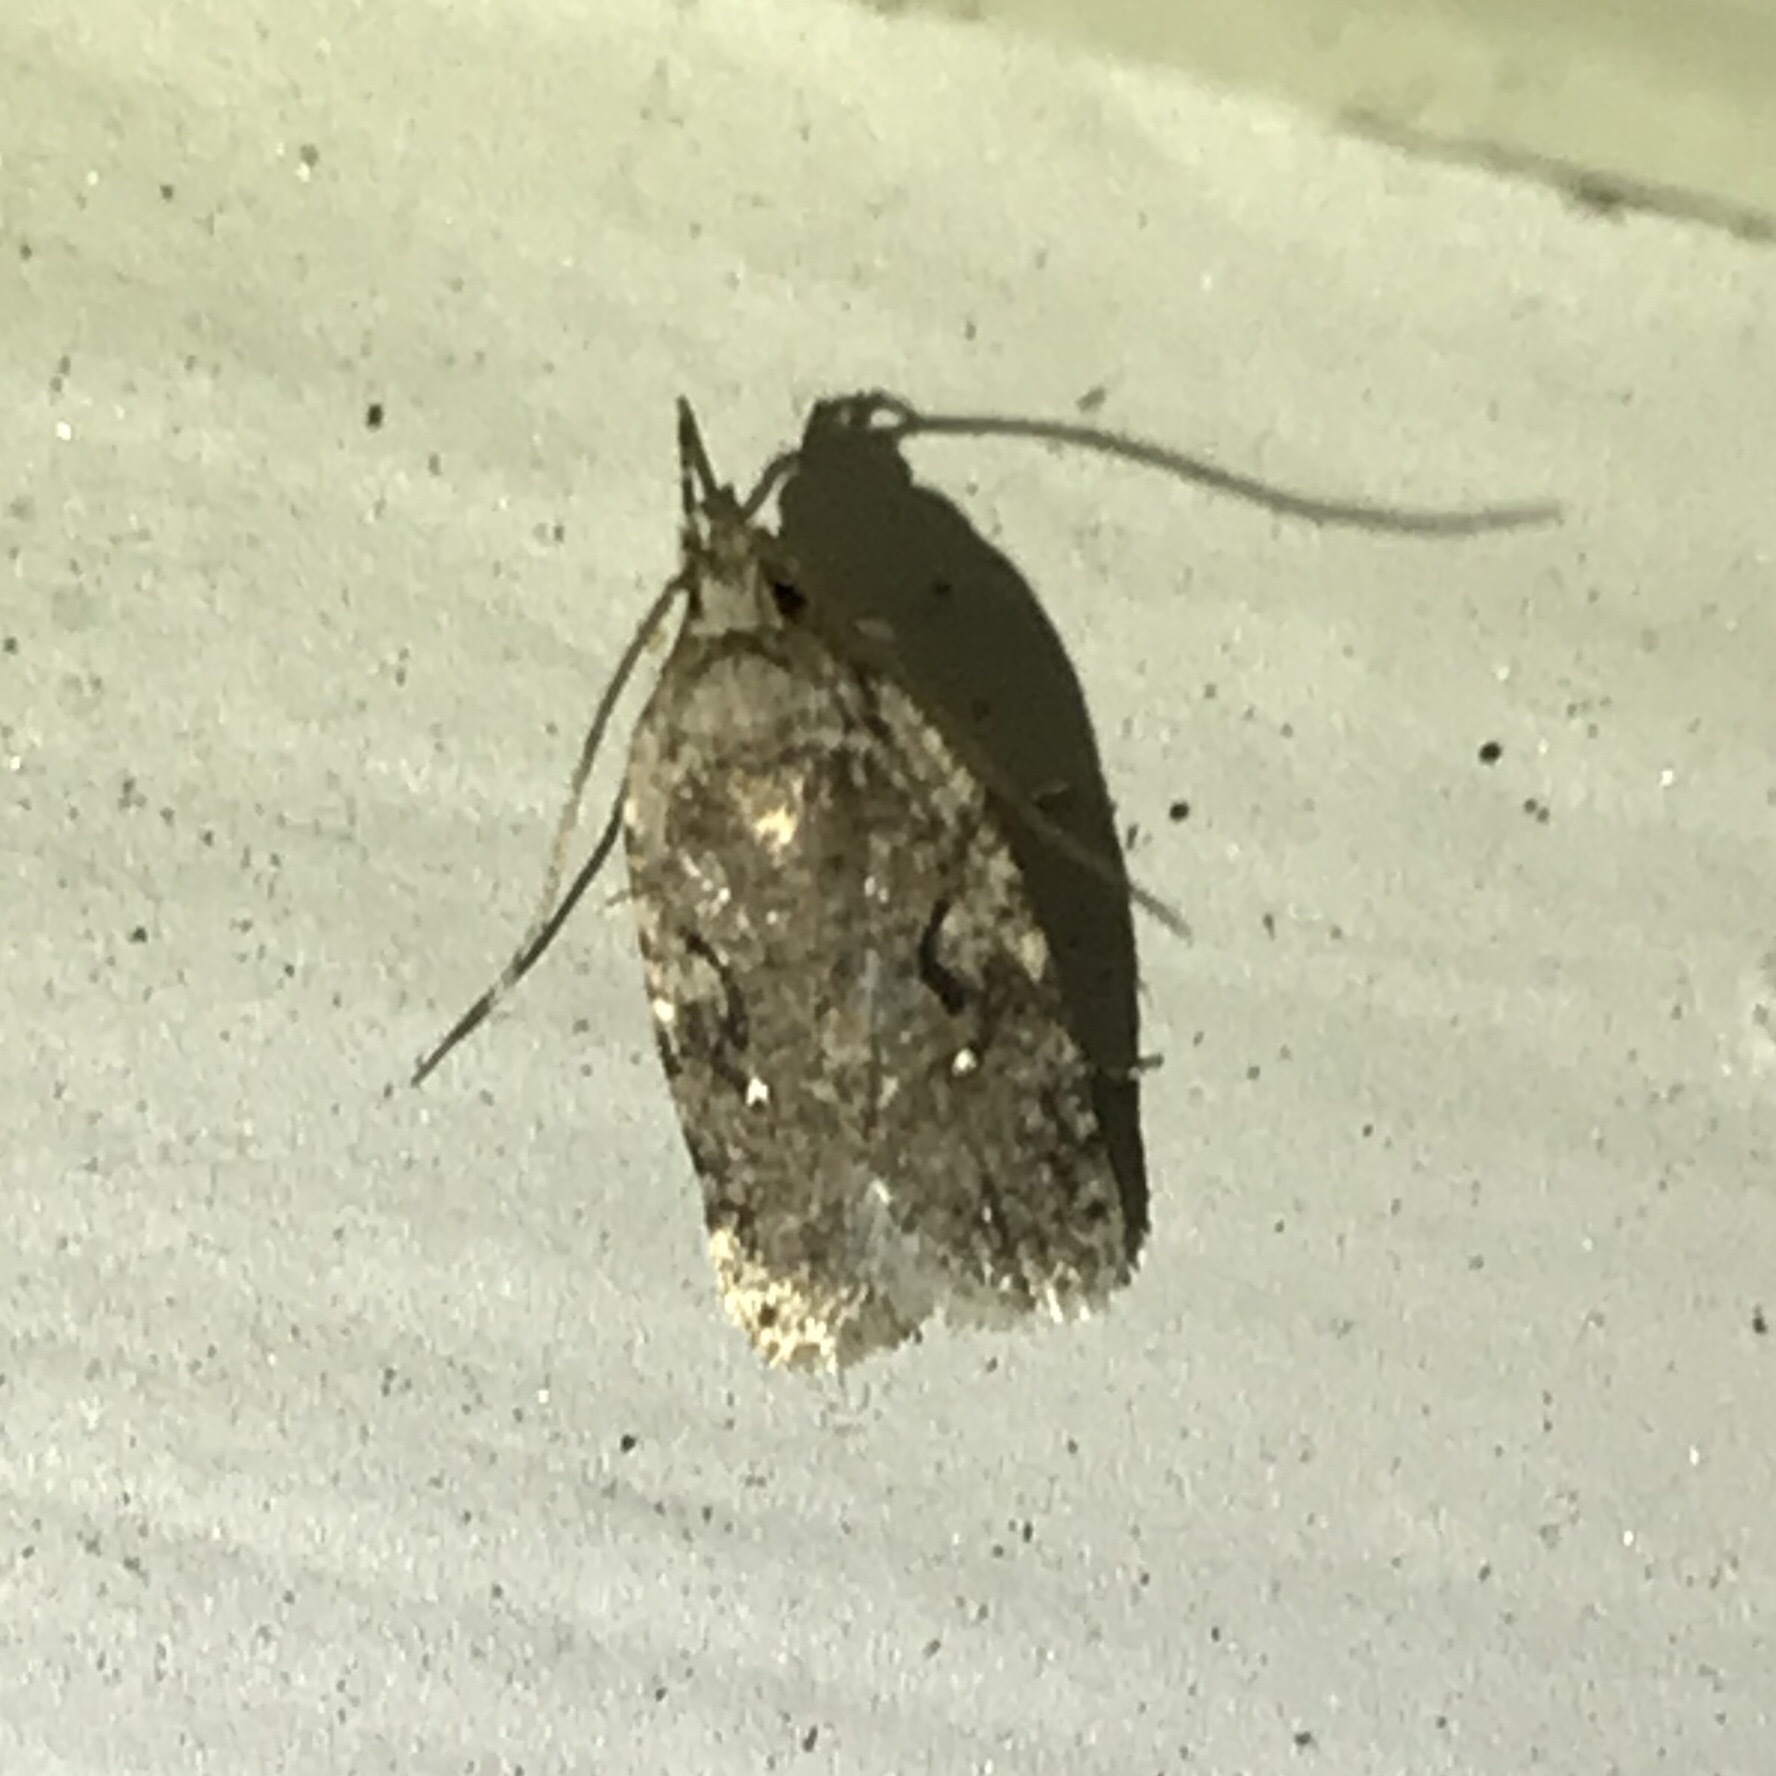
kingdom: Animalia
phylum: Arthropoda
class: Insecta
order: Lepidoptera
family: Depressariidae
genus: Agonopterix
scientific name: Agonopterix curvilineella
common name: Curved-line agonopterix moth
